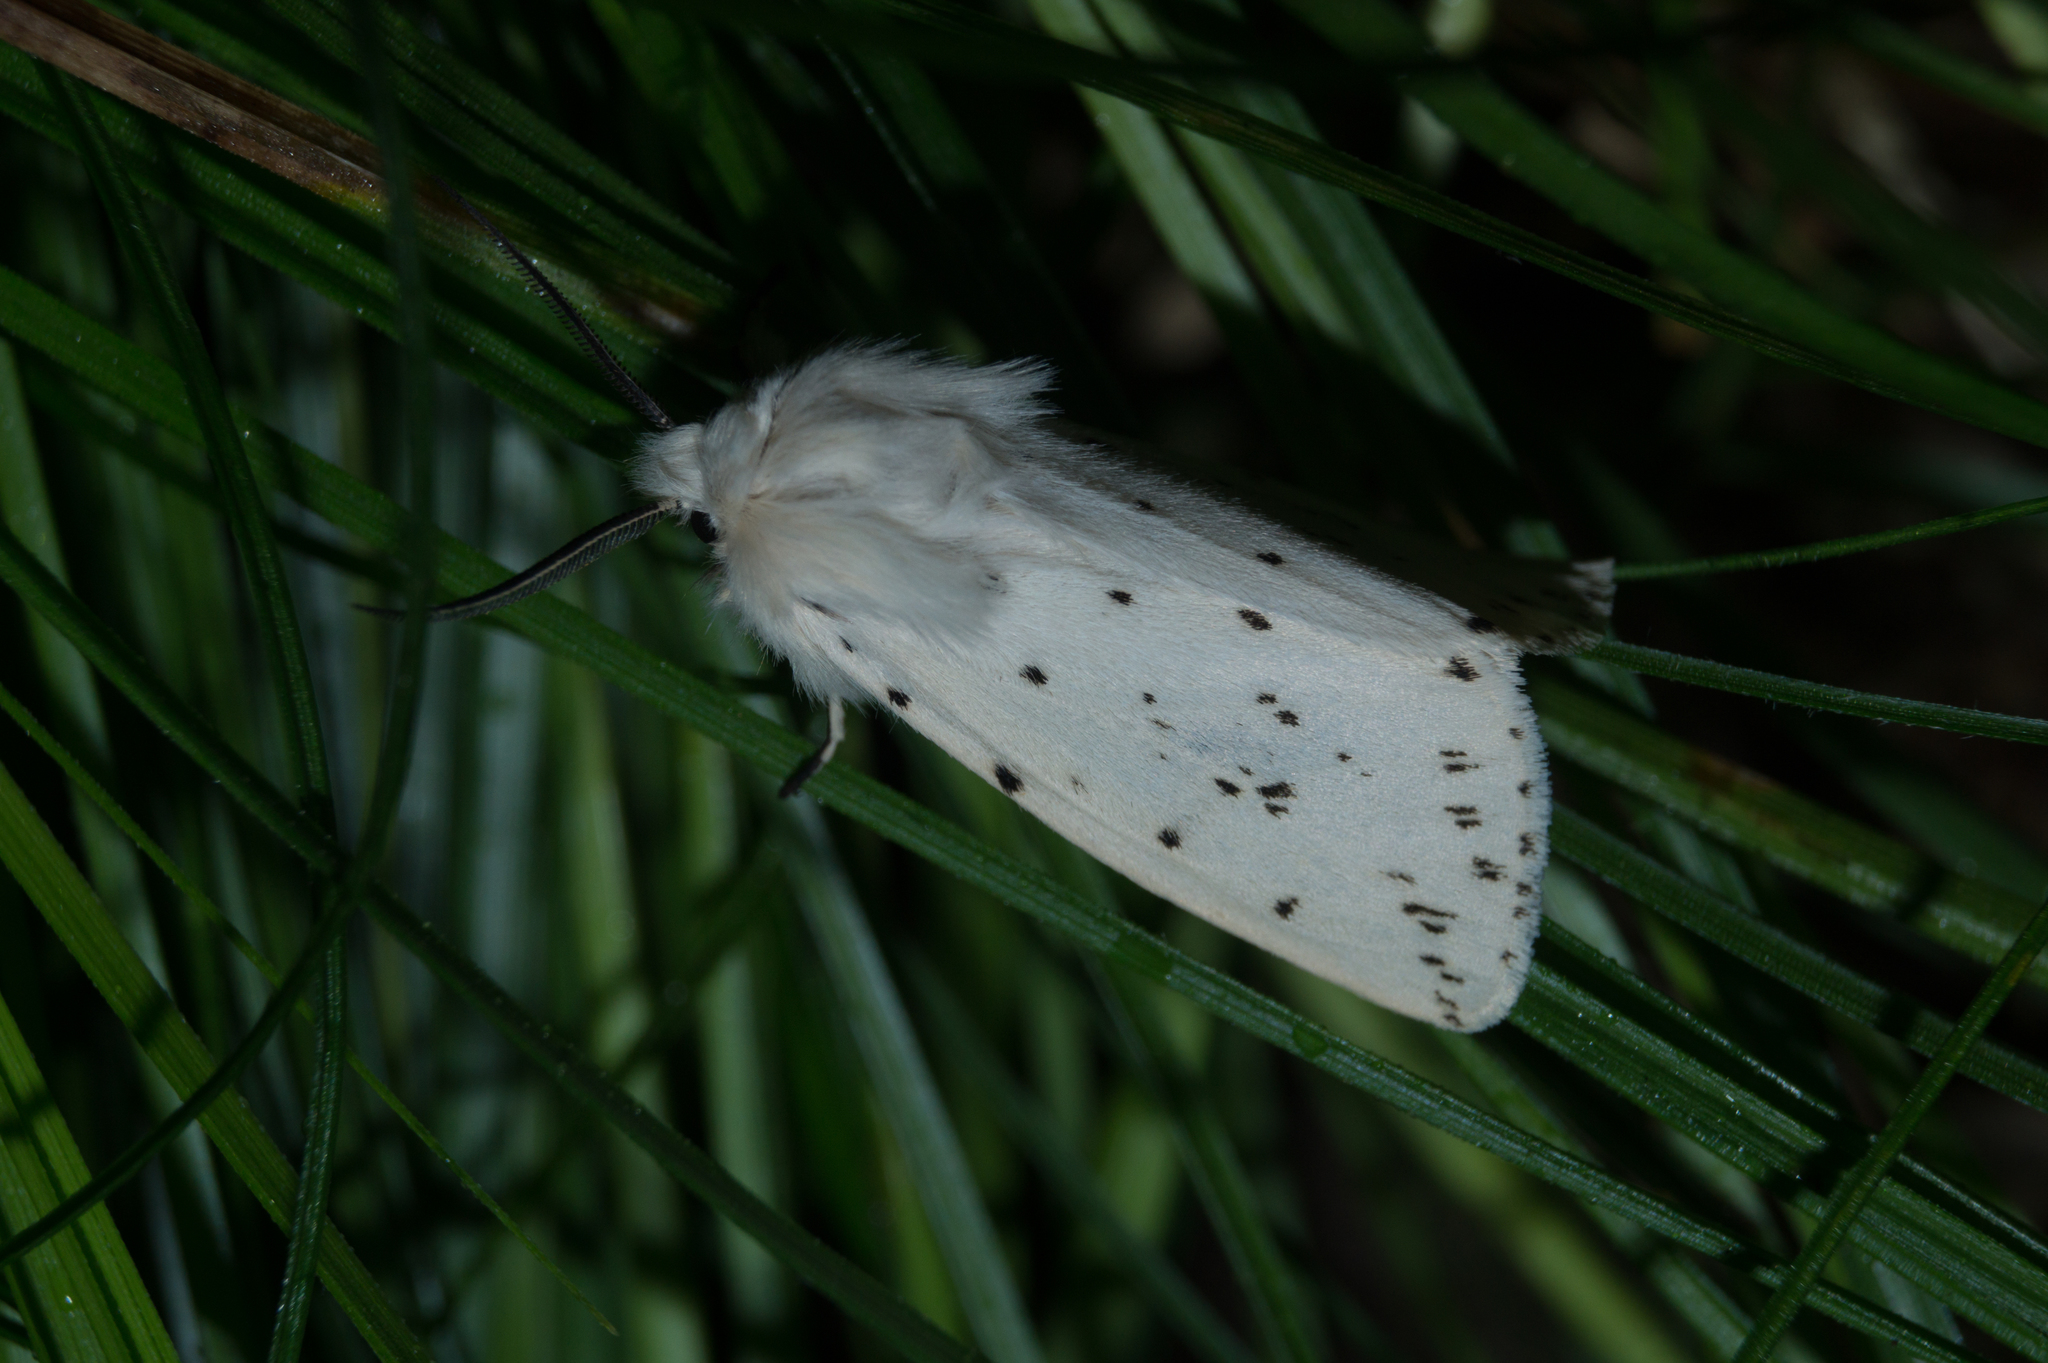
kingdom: Animalia
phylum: Arthropoda
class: Insecta
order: Lepidoptera
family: Erebidae
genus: Spilosoma
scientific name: Spilosoma lubricipeda
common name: White ermine
